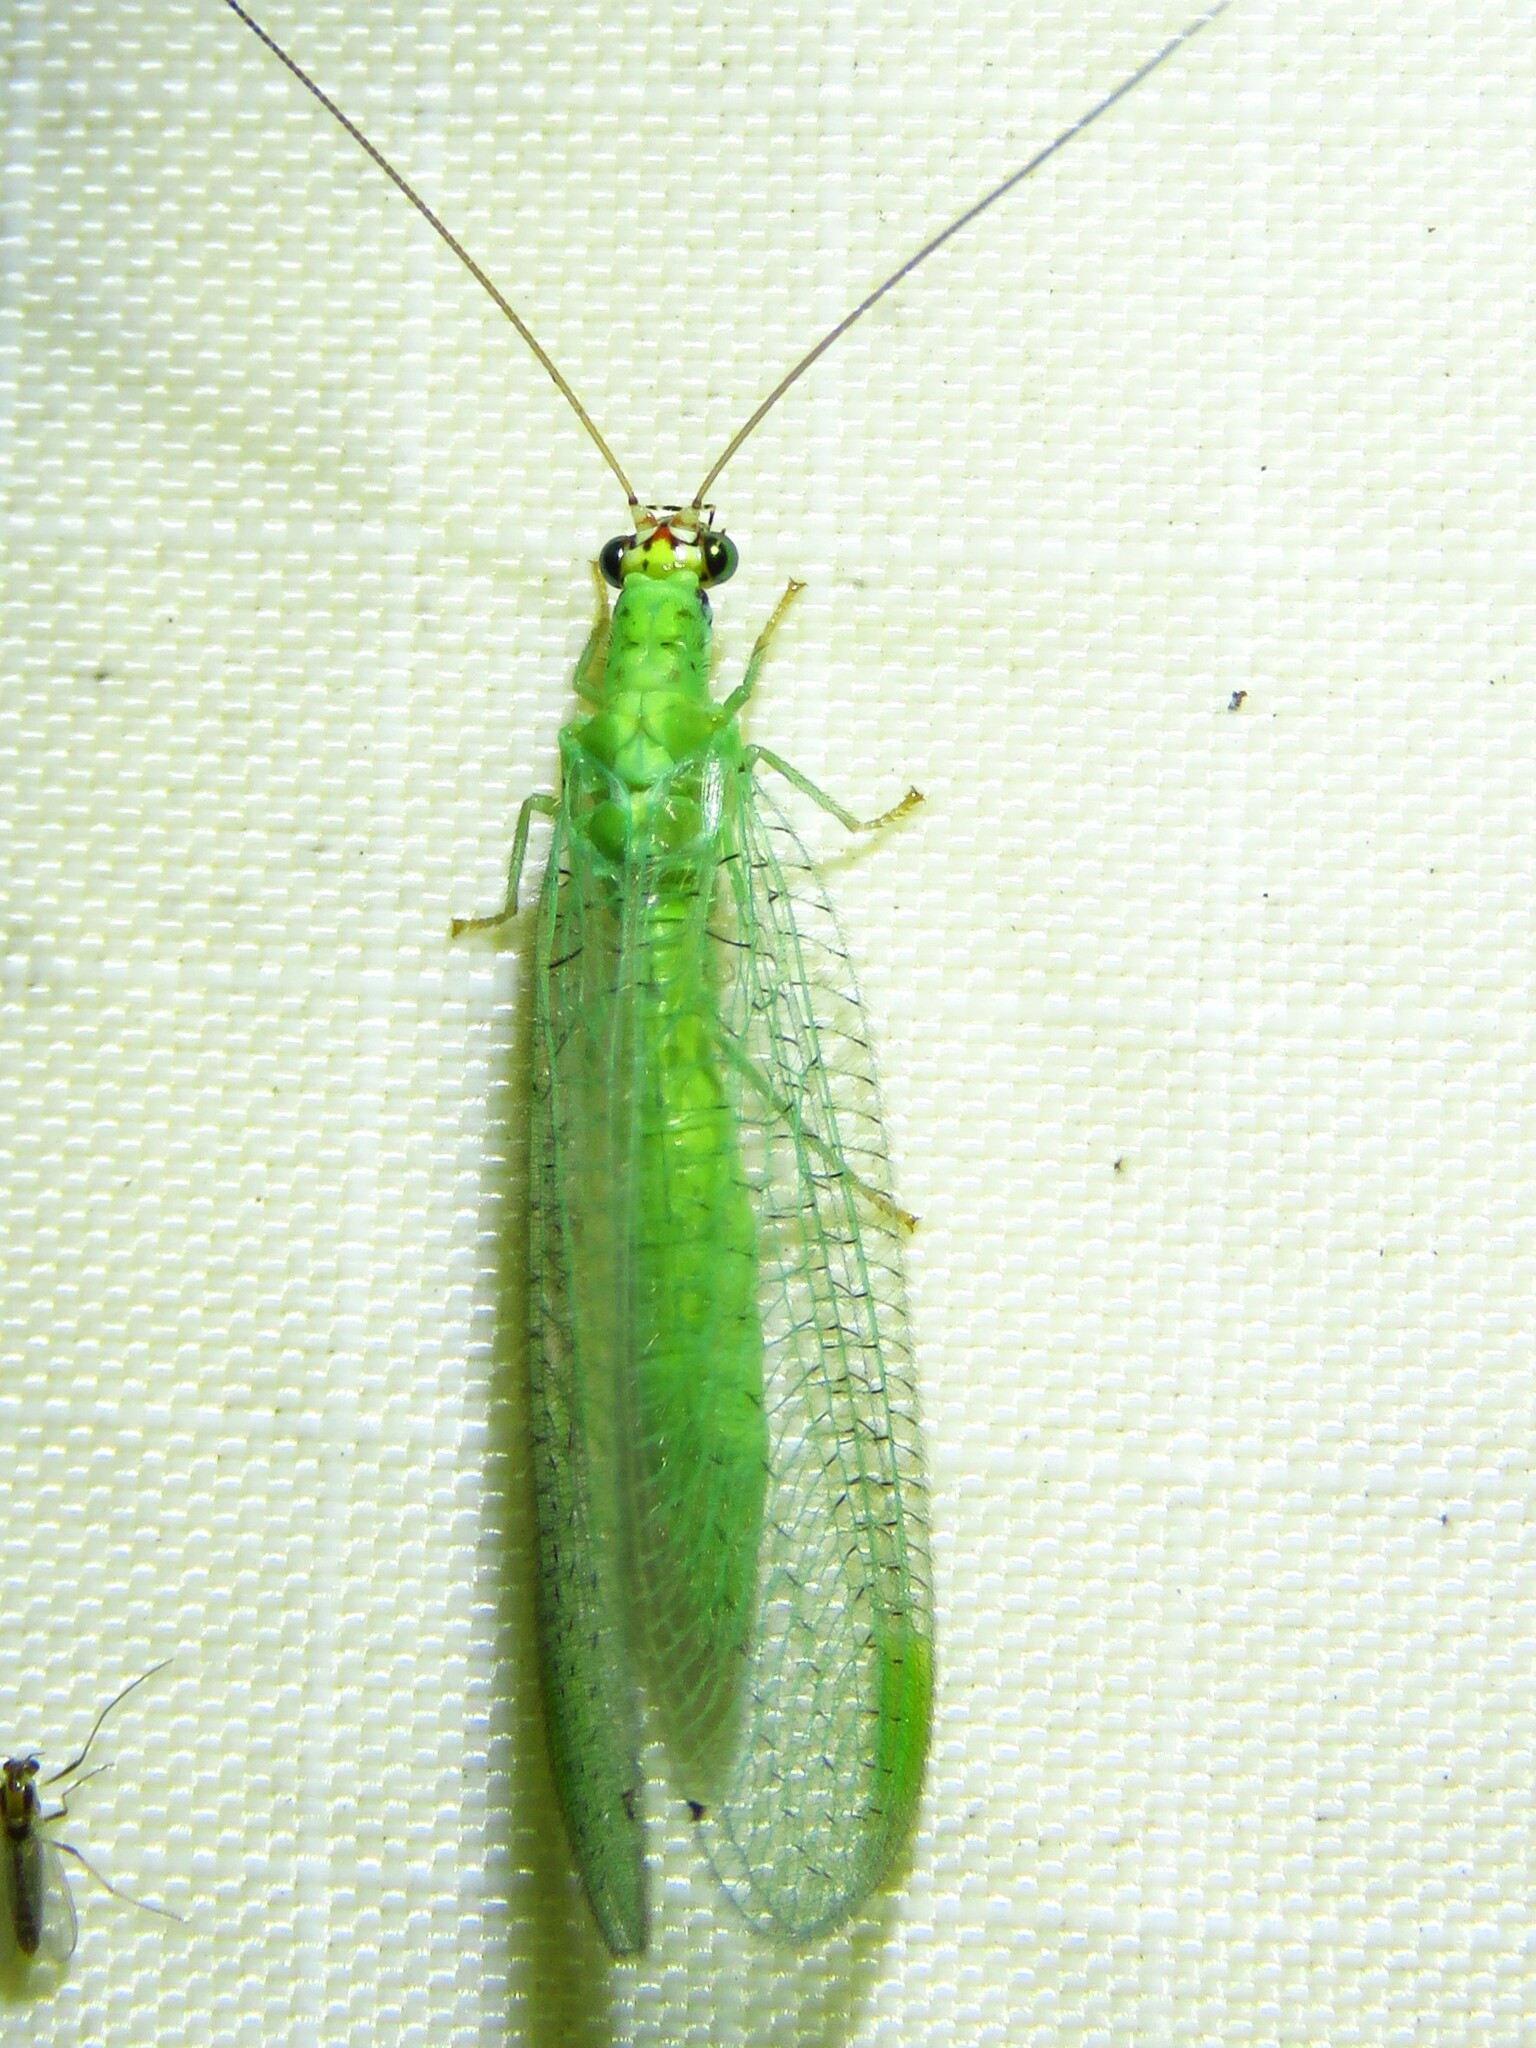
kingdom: Animalia
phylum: Arthropoda
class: Insecta
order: Neuroptera
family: Chrysopidae
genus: Chrysopa
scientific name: Chrysopa oculata
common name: Golden-eyed lacewing
